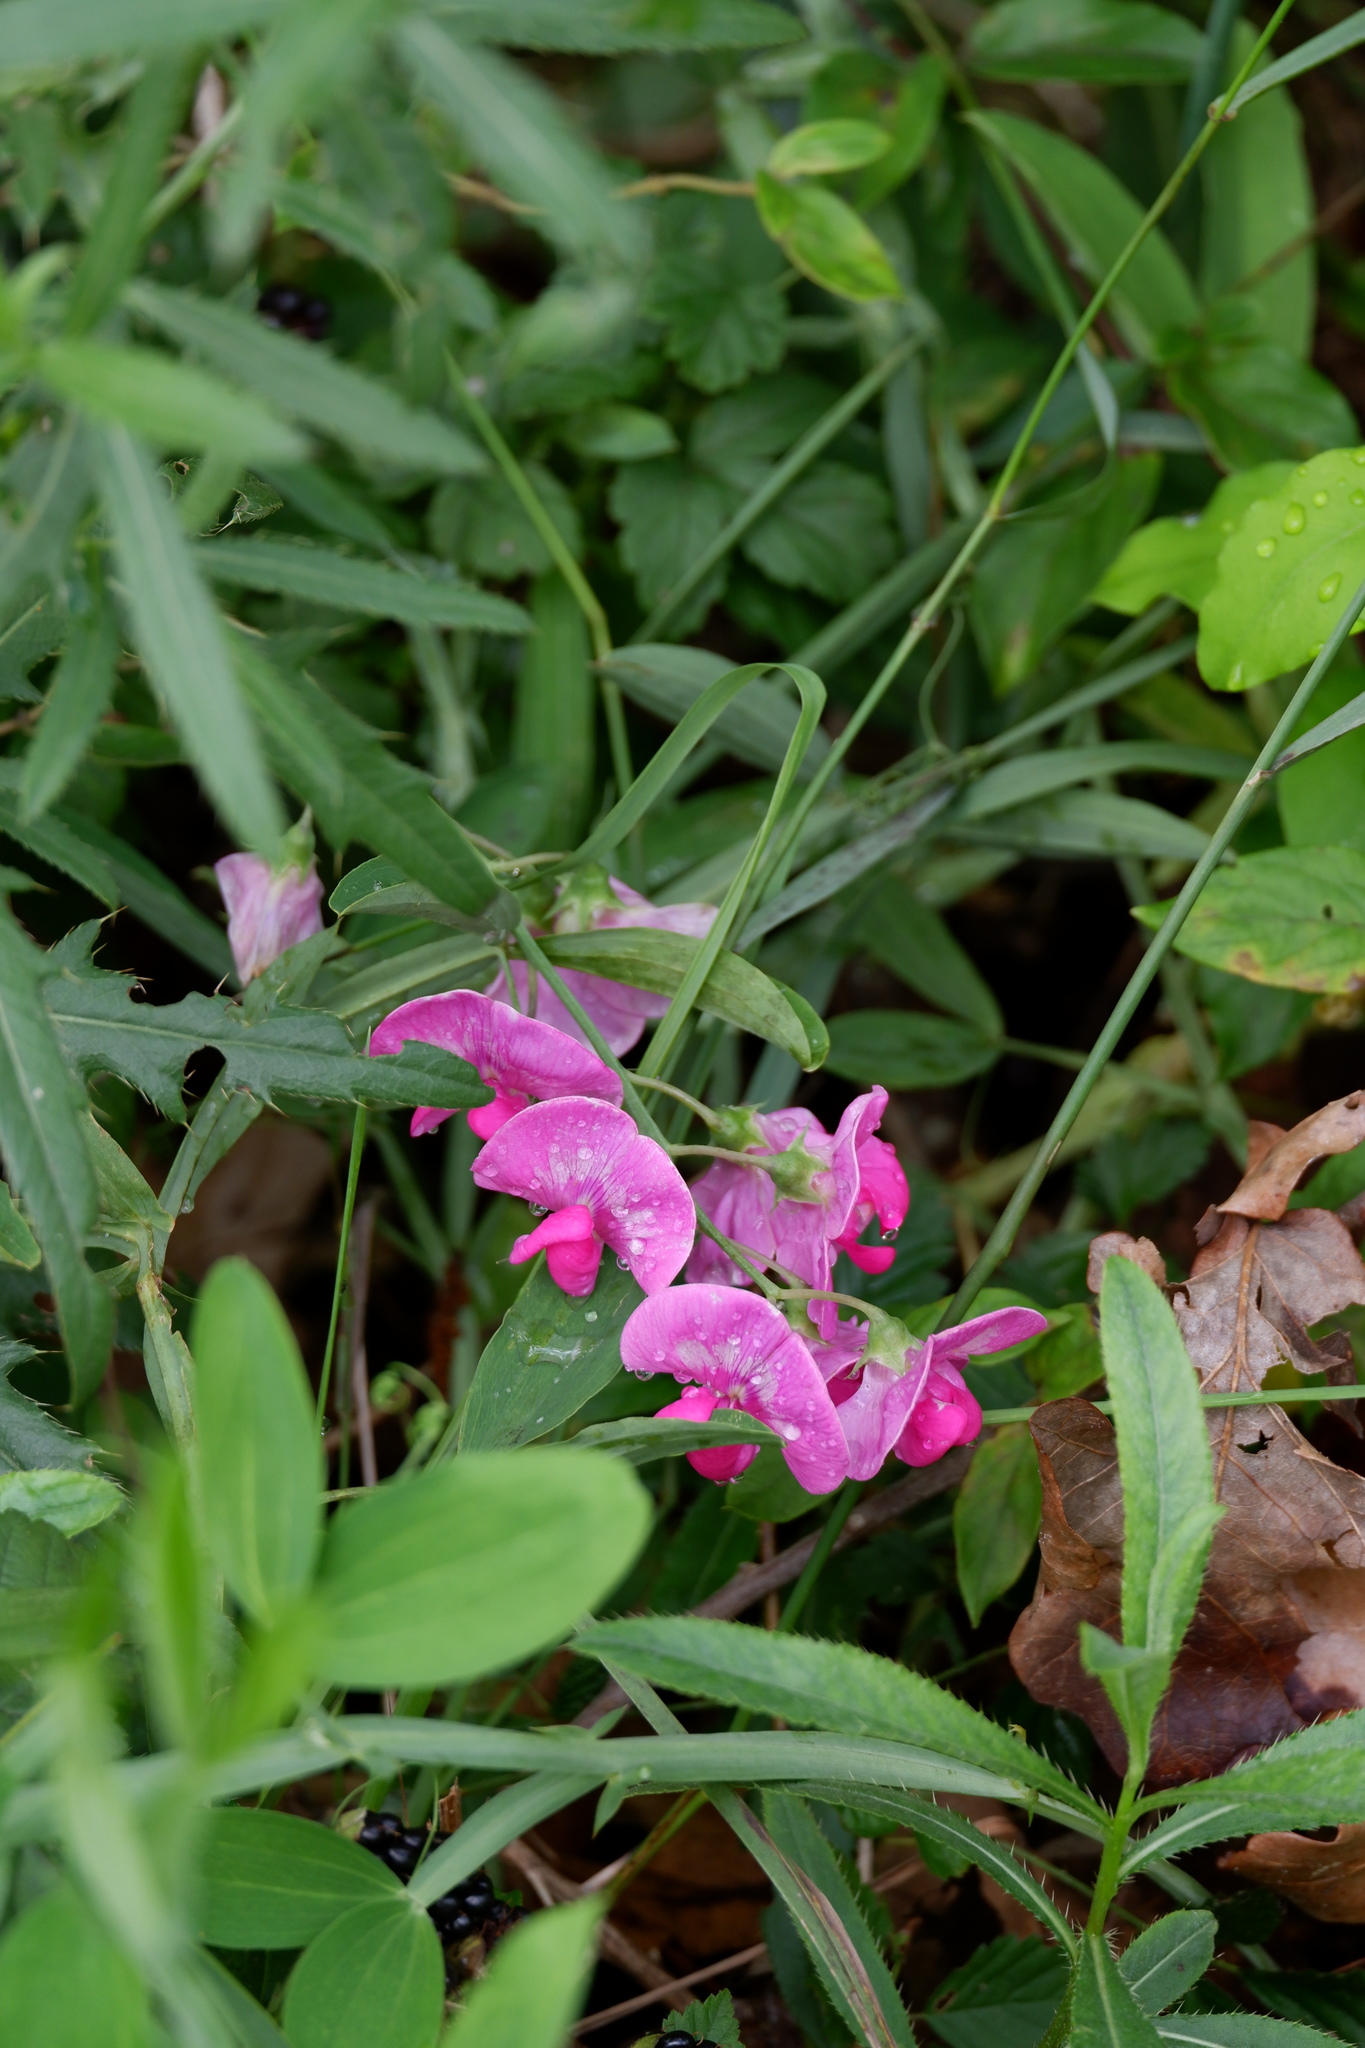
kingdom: Plantae
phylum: Tracheophyta
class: Magnoliopsida
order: Fabales
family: Fabaceae
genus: Lathyrus
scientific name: Lathyrus latifolius
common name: Perennial pea
